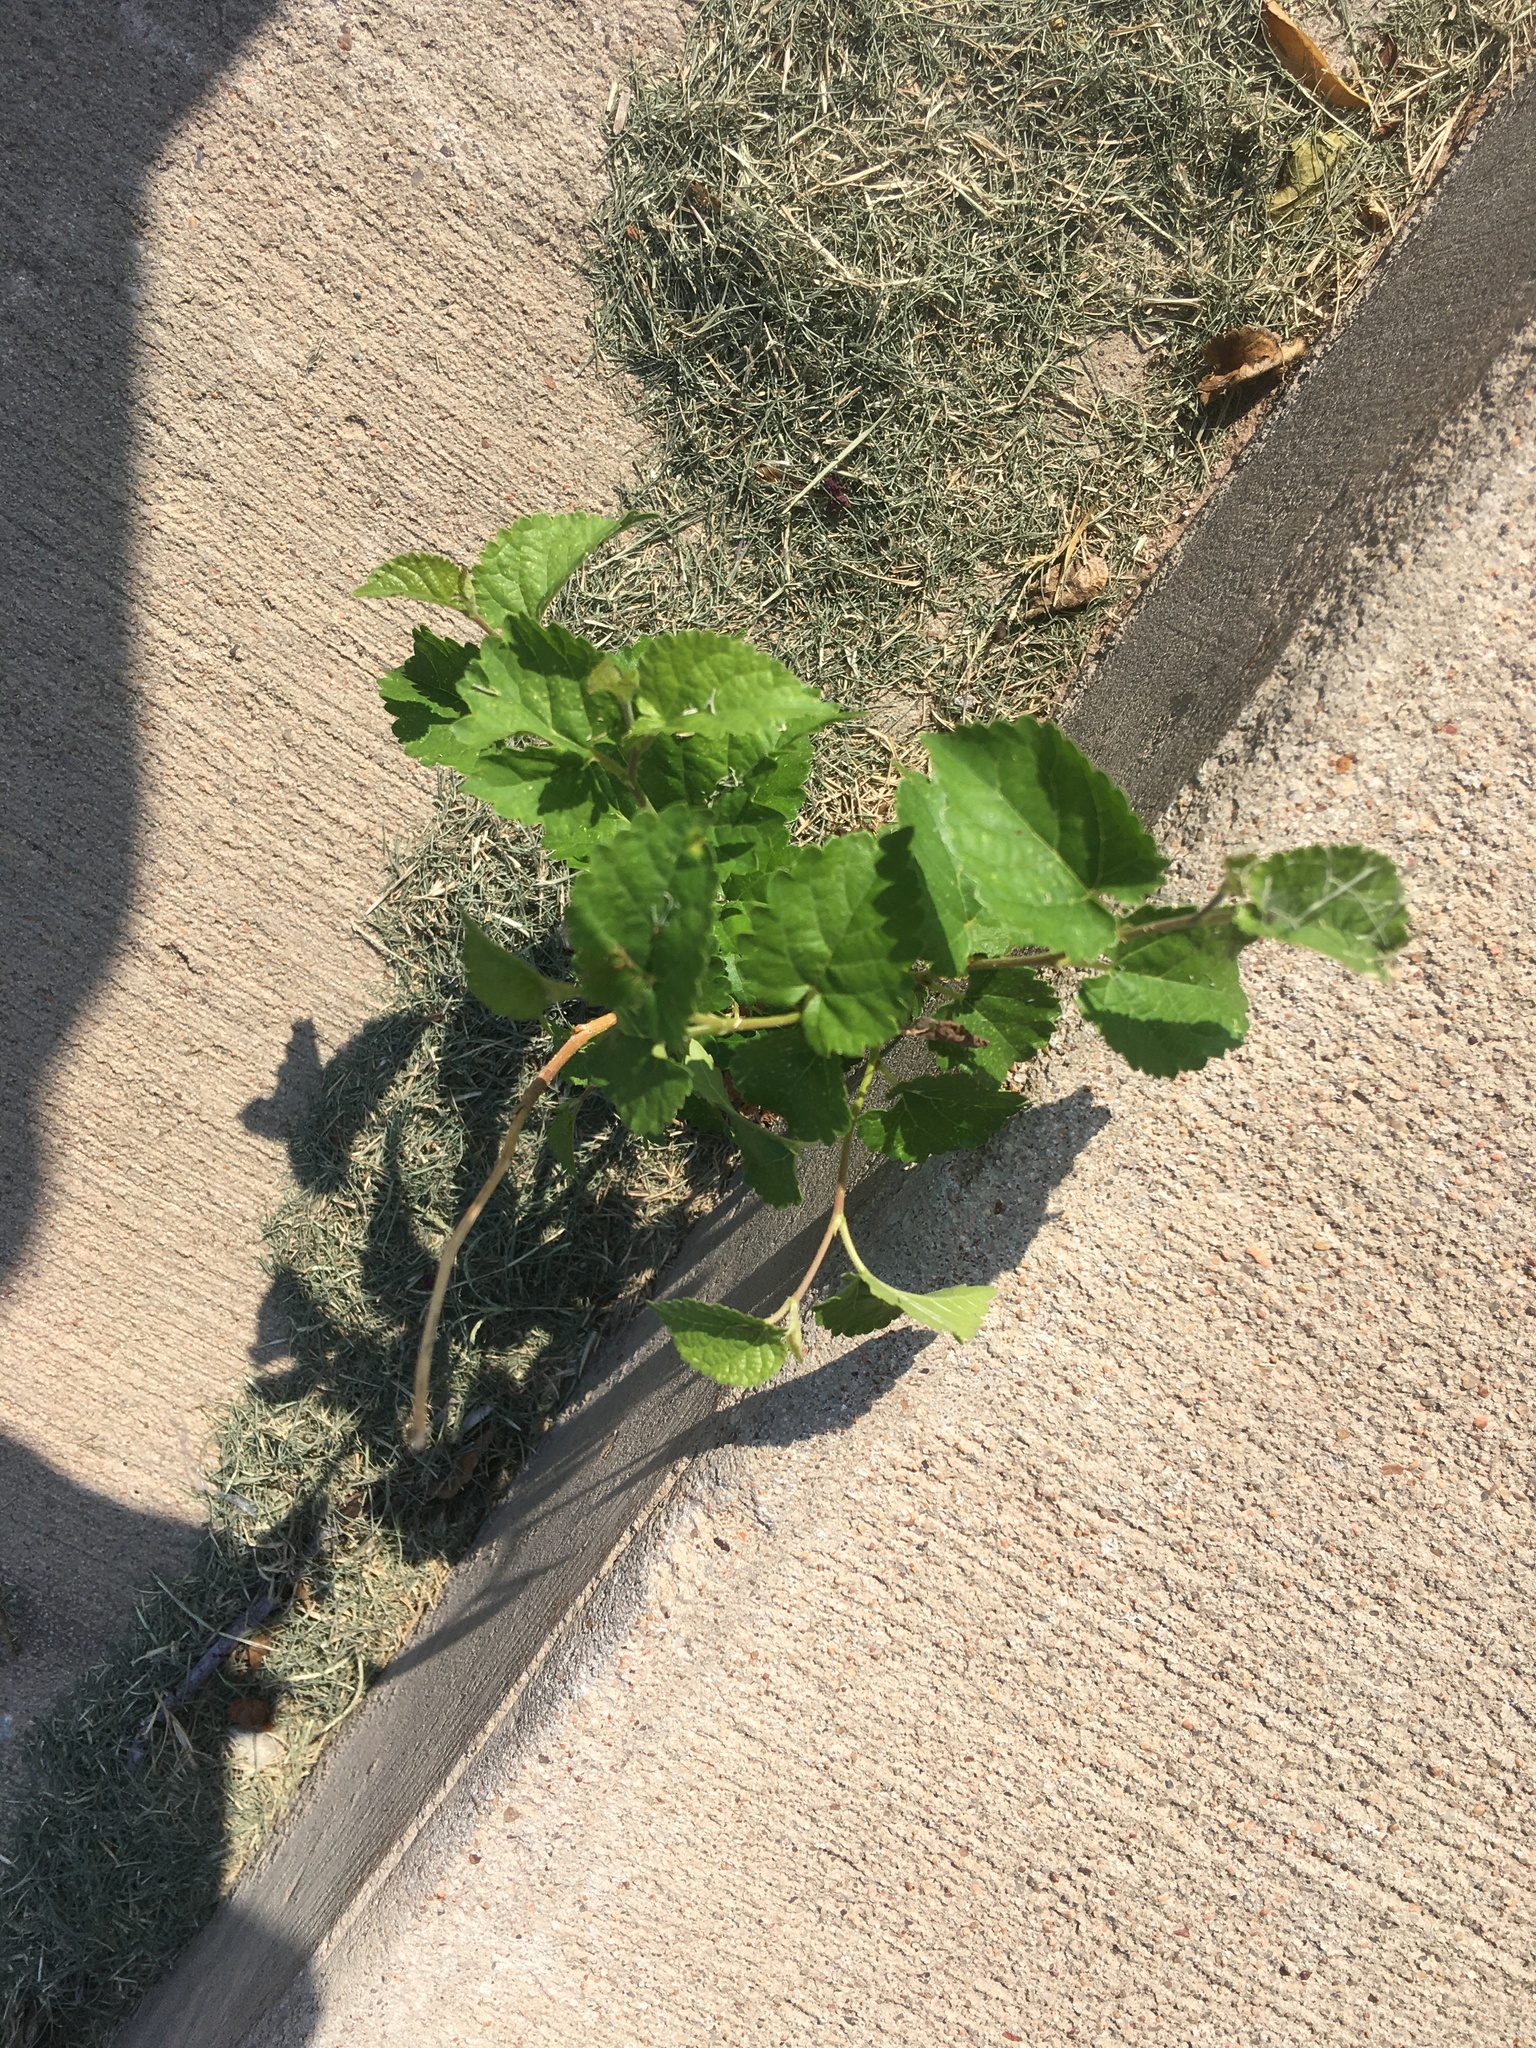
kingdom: Plantae
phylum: Tracheophyta
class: Magnoliopsida
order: Rosales
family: Moraceae
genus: Morus
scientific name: Morus alba
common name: White mulberry
